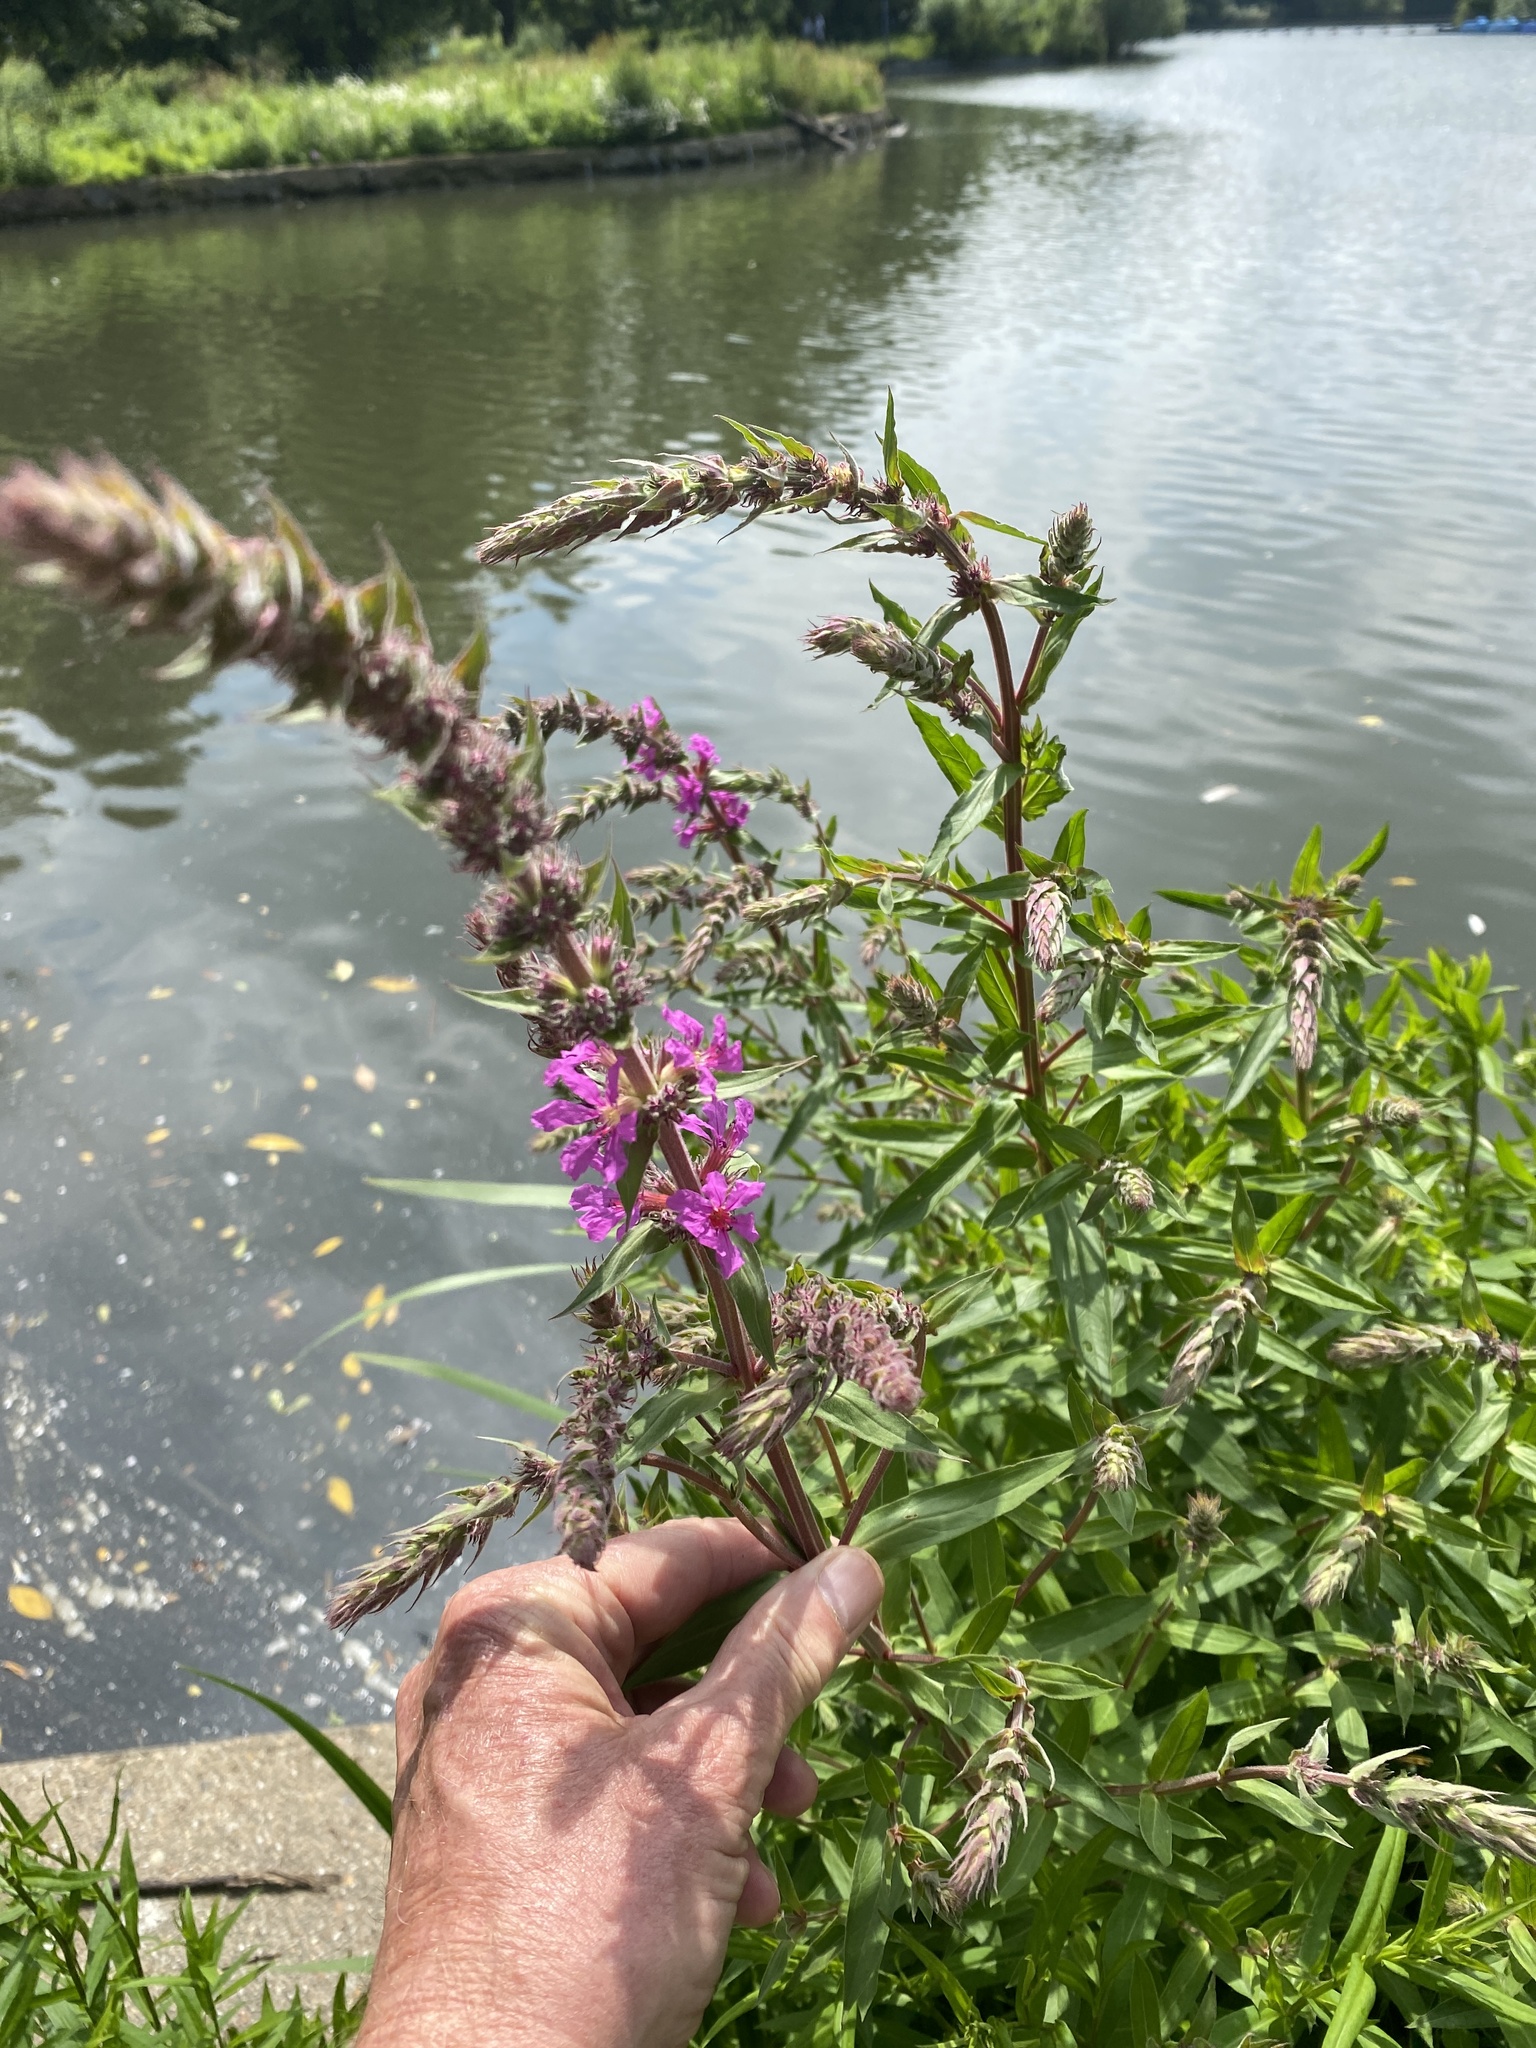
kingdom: Plantae
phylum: Tracheophyta
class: Magnoliopsida
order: Myrtales
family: Lythraceae
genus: Lythrum
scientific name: Lythrum salicaria
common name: Purple loosestrife
